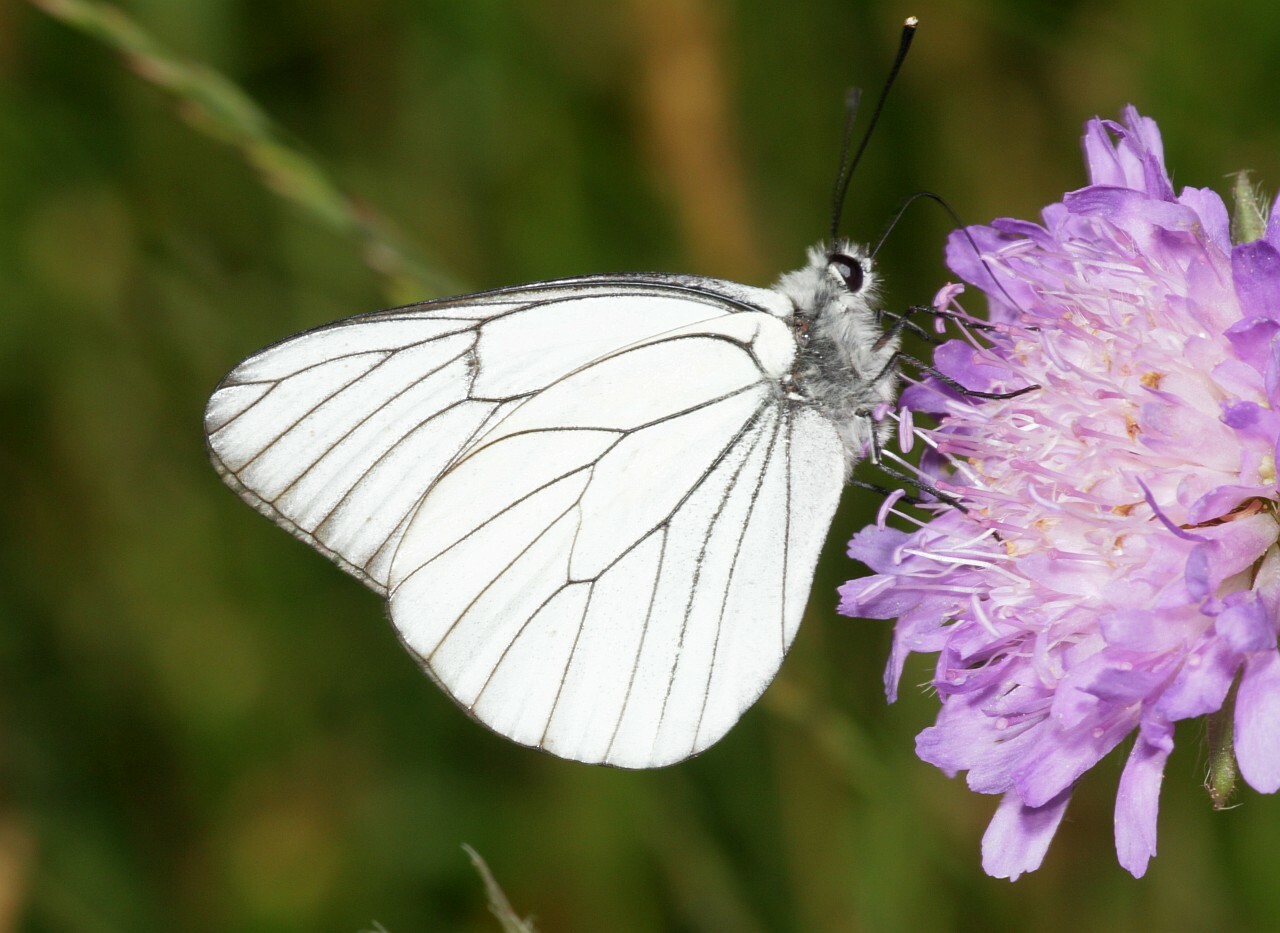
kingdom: Animalia
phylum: Arthropoda
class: Insecta
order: Lepidoptera
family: Pieridae
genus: Aporia
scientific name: Aporia crataegi
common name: Black-veined white
